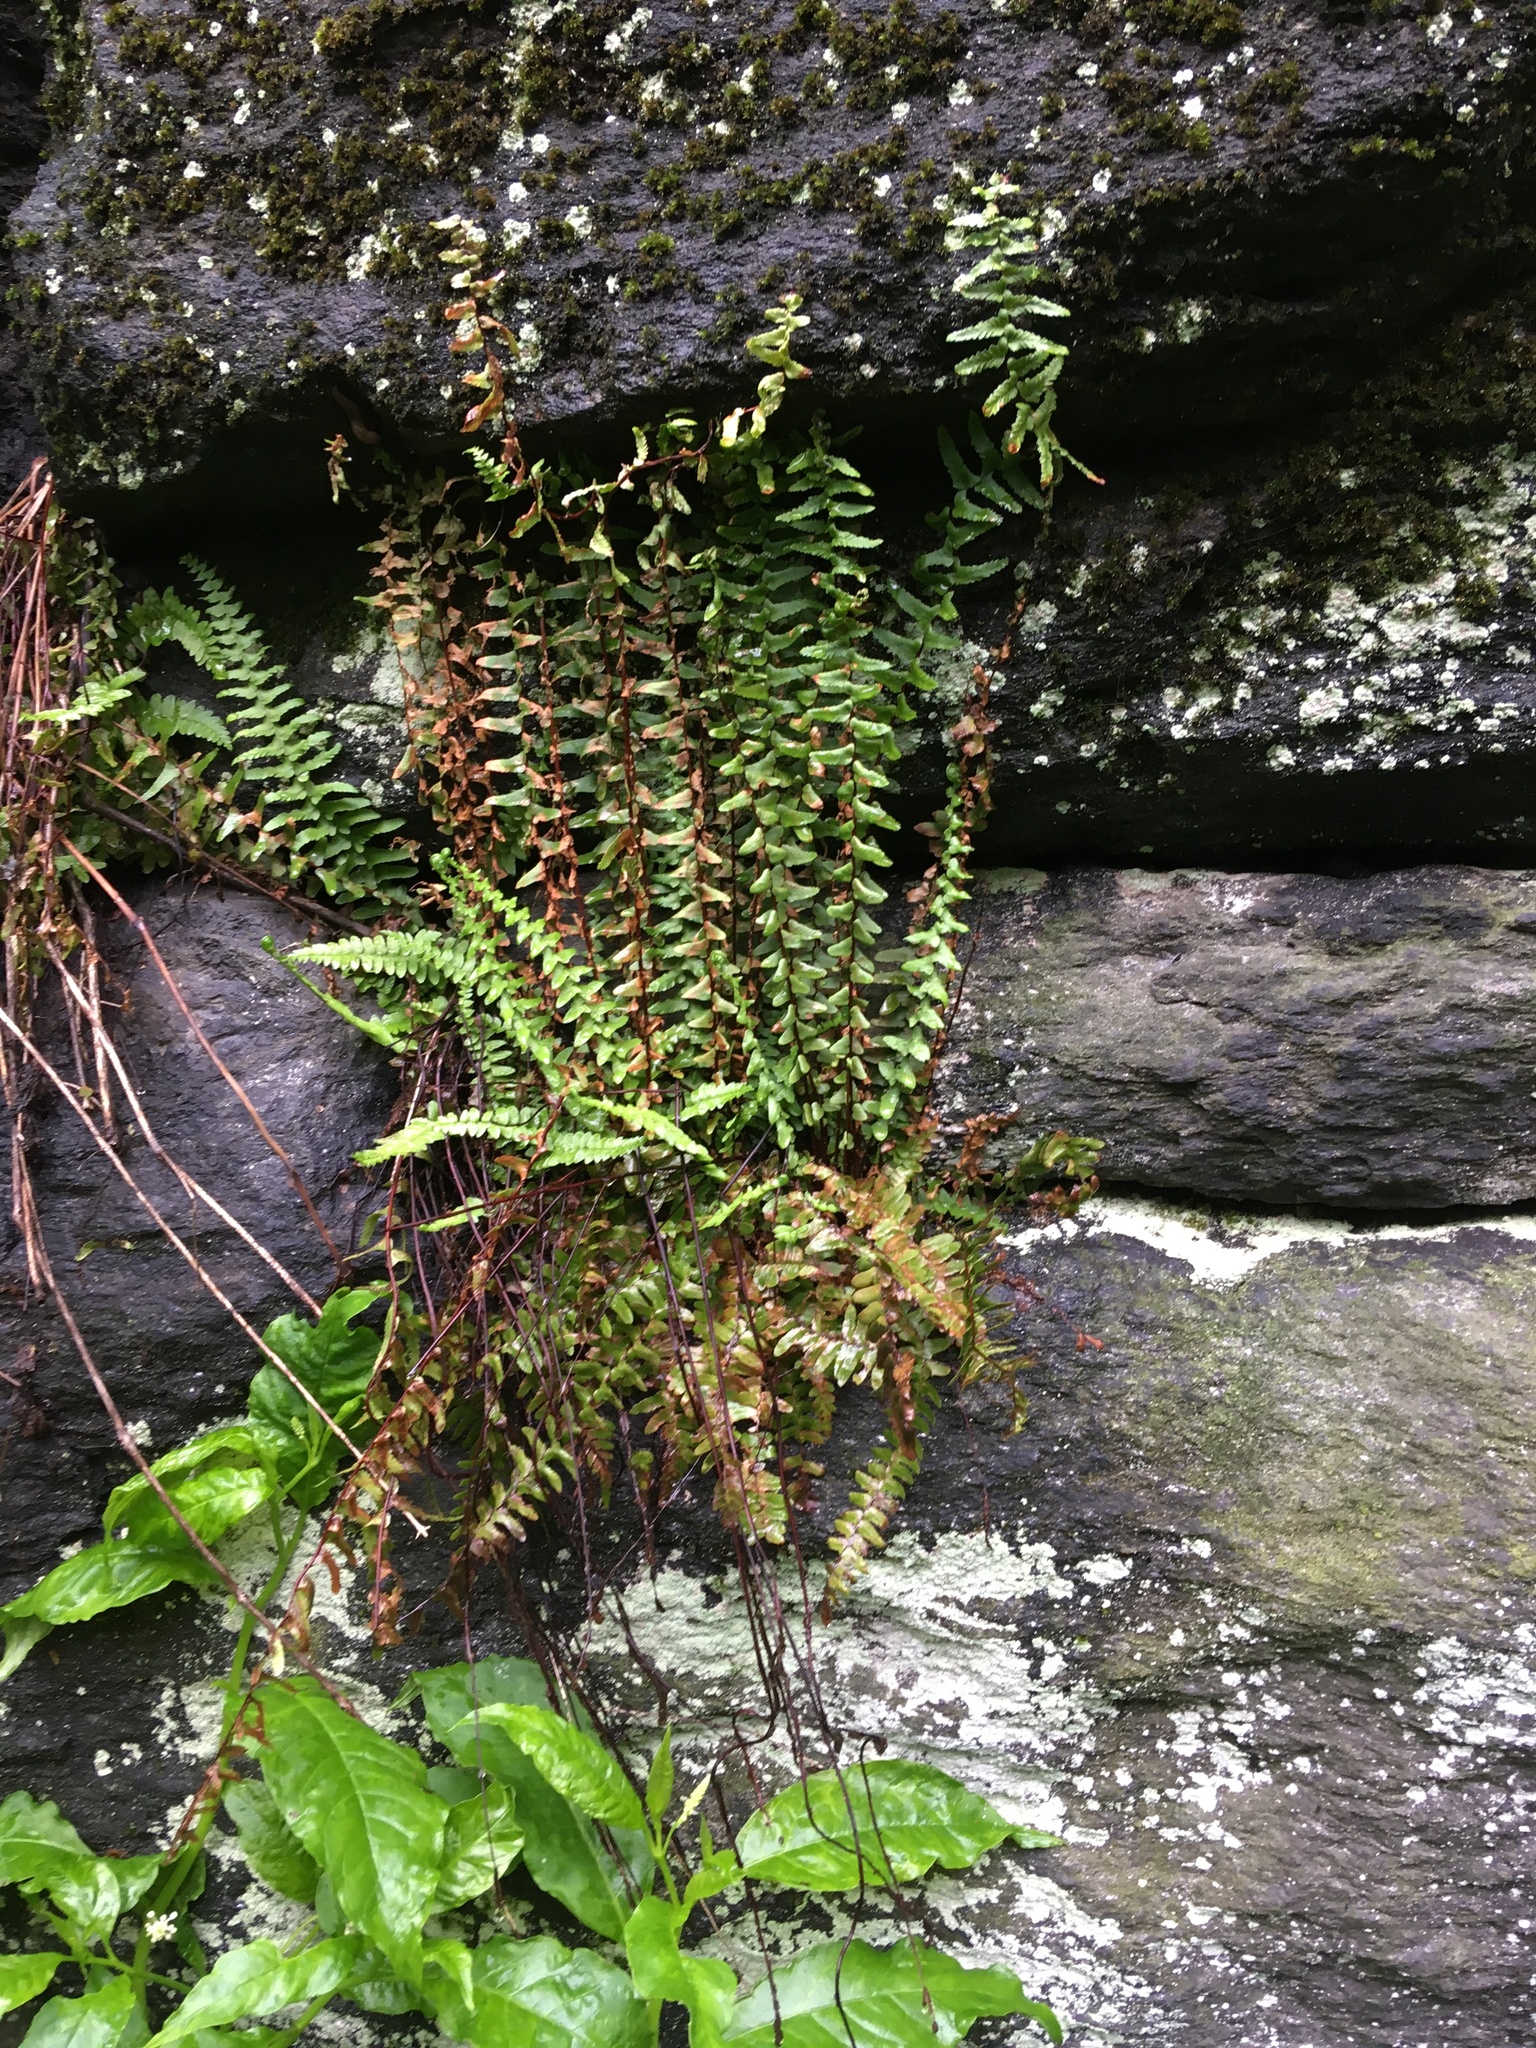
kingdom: Plantae
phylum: Tracheophyta
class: Polypodiopsida
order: Polypodiales
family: Aspleniaceae
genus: Asplenium
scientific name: Asplenium platyneuron
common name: Ebony spleenwort
